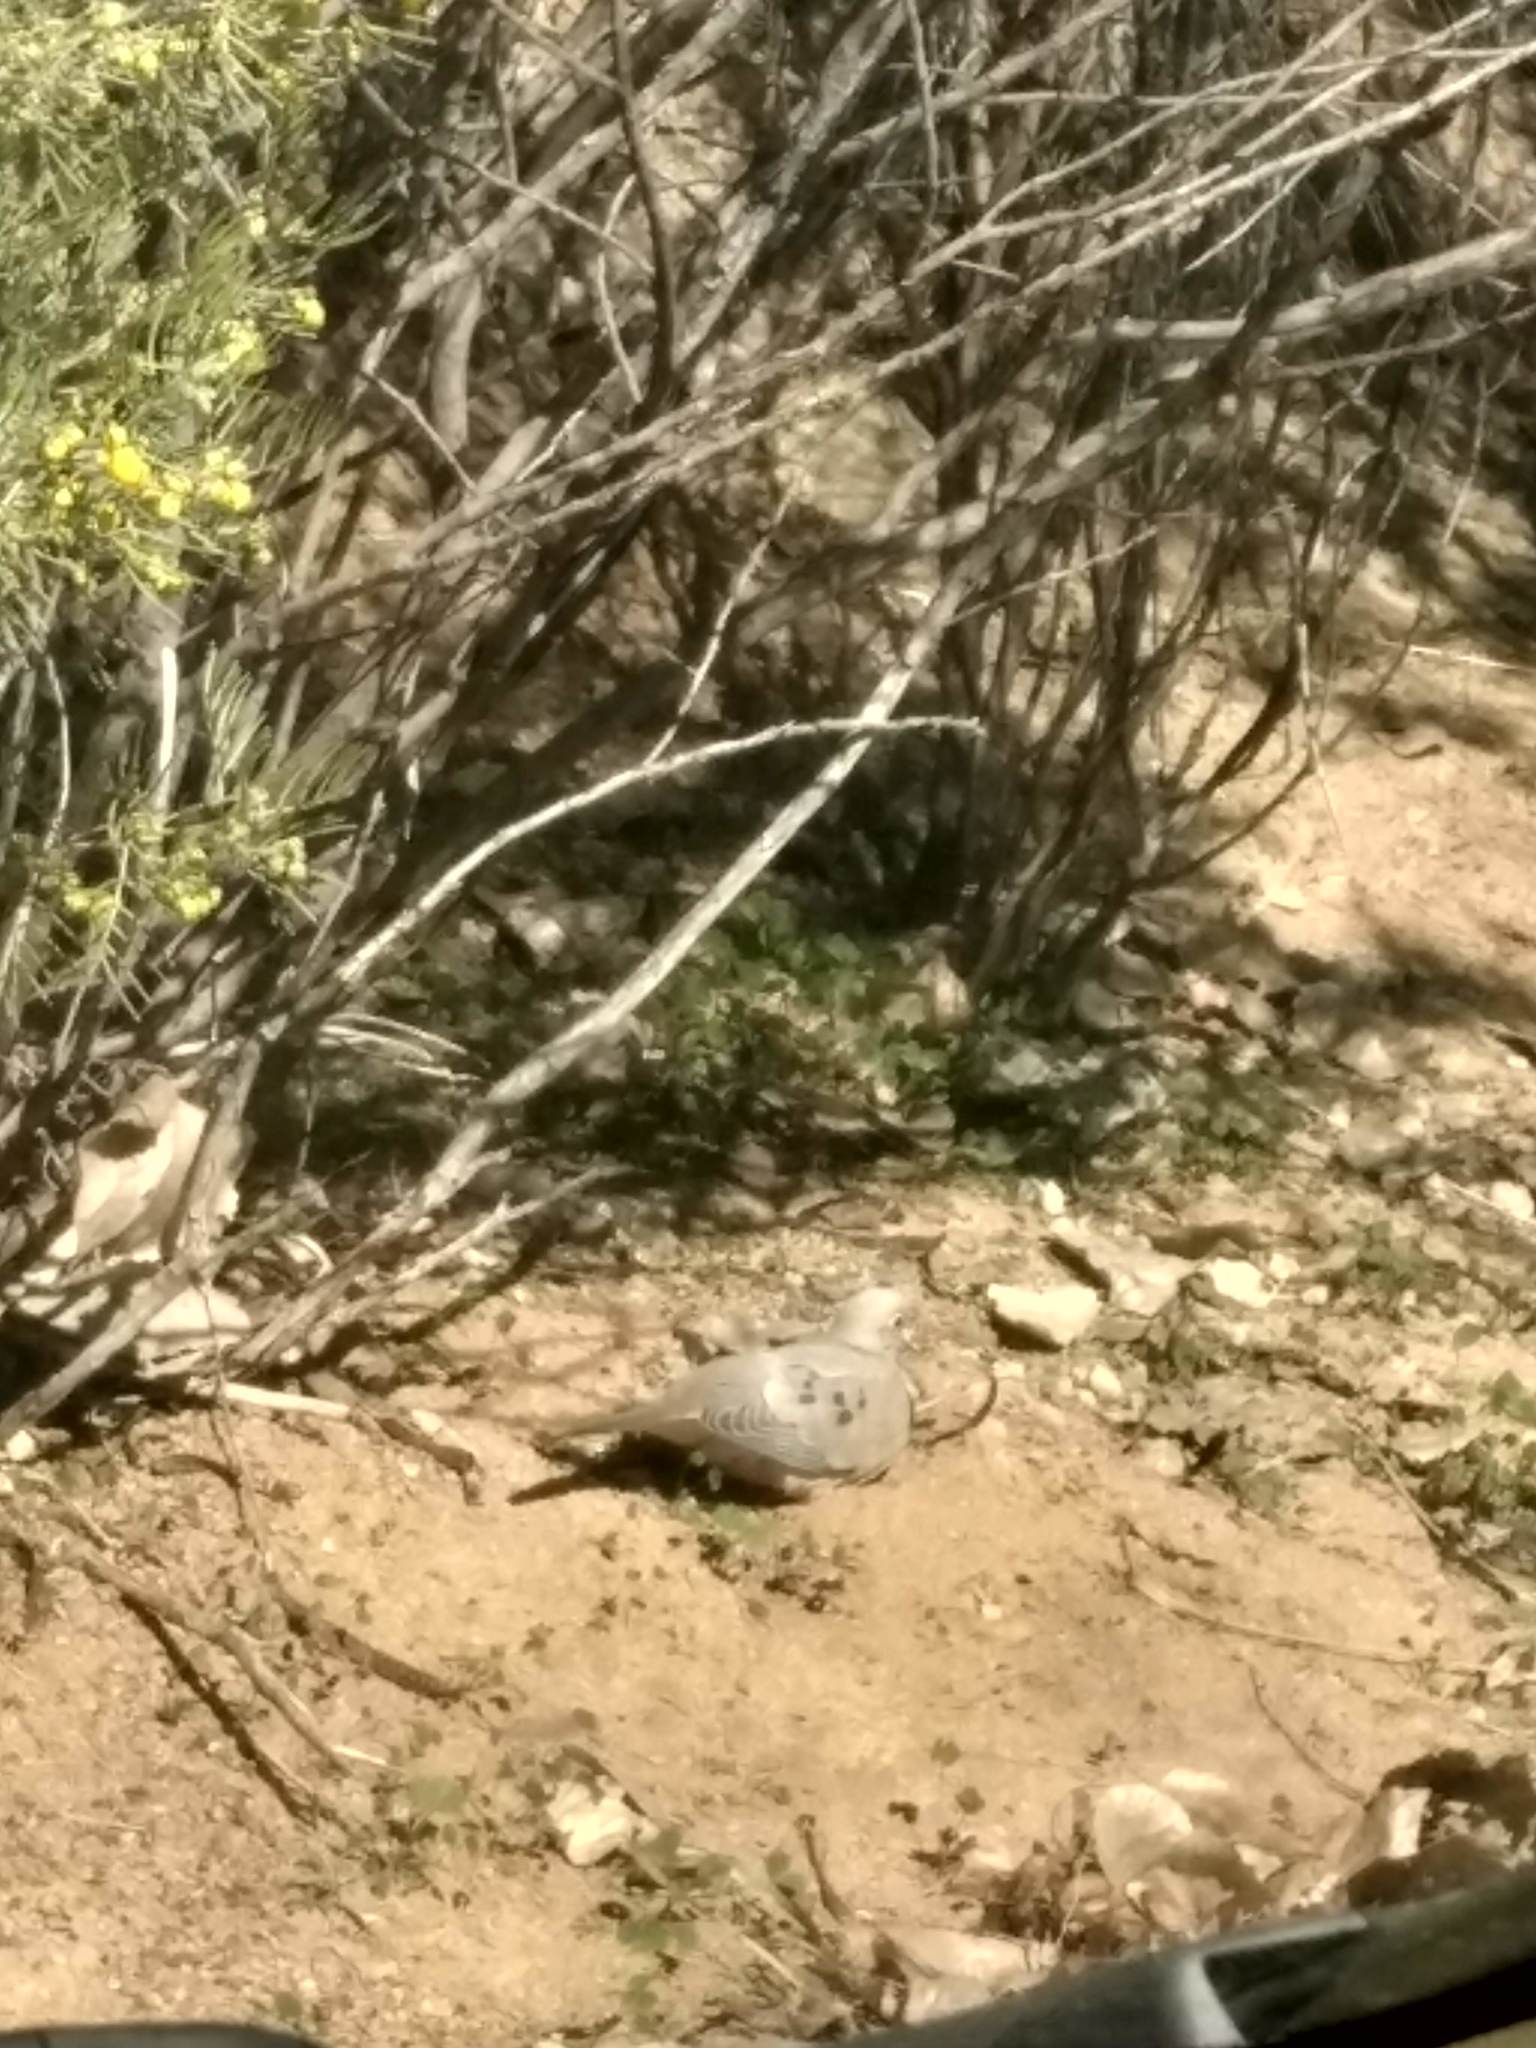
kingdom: Animalia
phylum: Chordata
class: Aves
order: Columbiformes
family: Columbidae
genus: Zenaida
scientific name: Zenaida macroura
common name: Mourning dove
